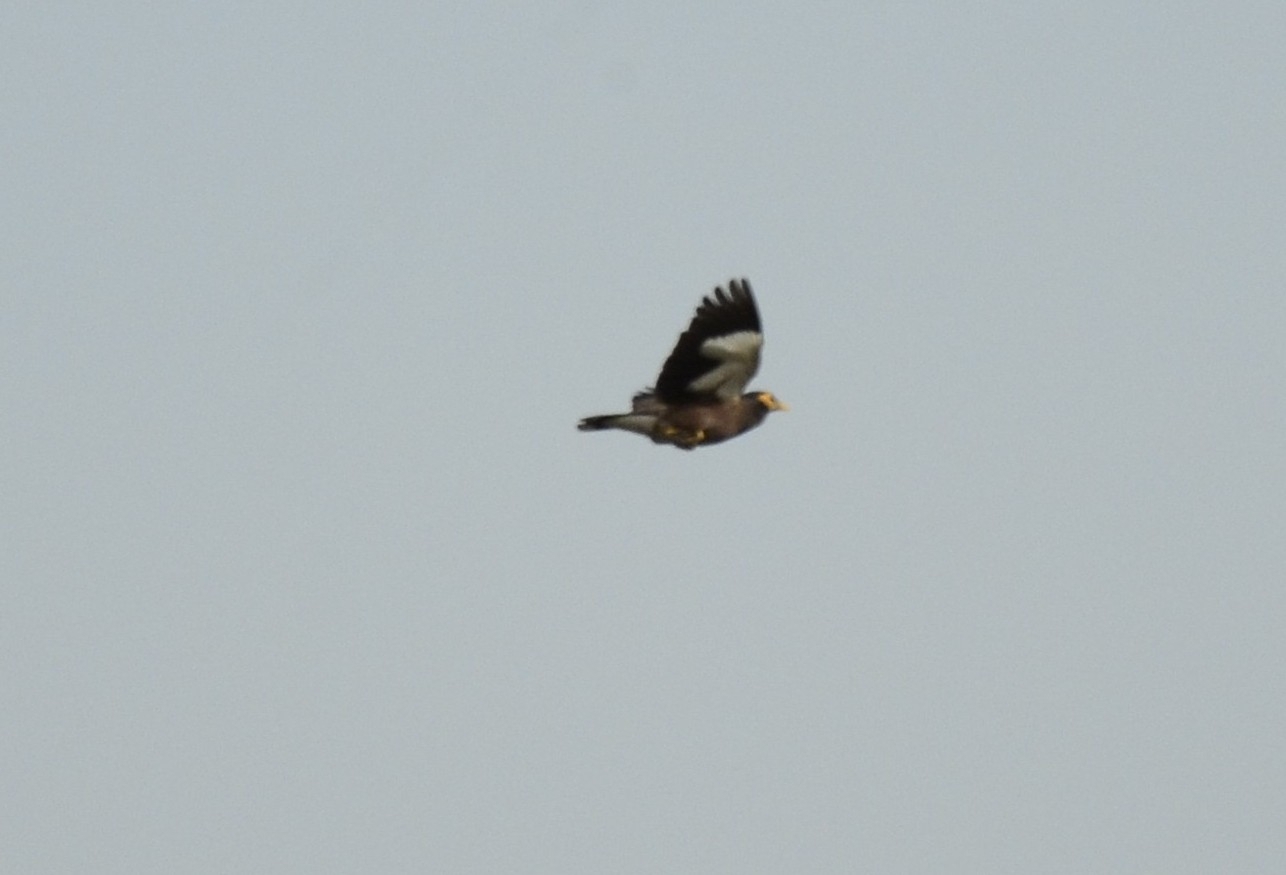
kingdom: Animalia
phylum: Chordata
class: Aves
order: Passeriformes
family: Sturnidae
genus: Acridotheres
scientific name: Acridotheres tristis
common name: Common myna
